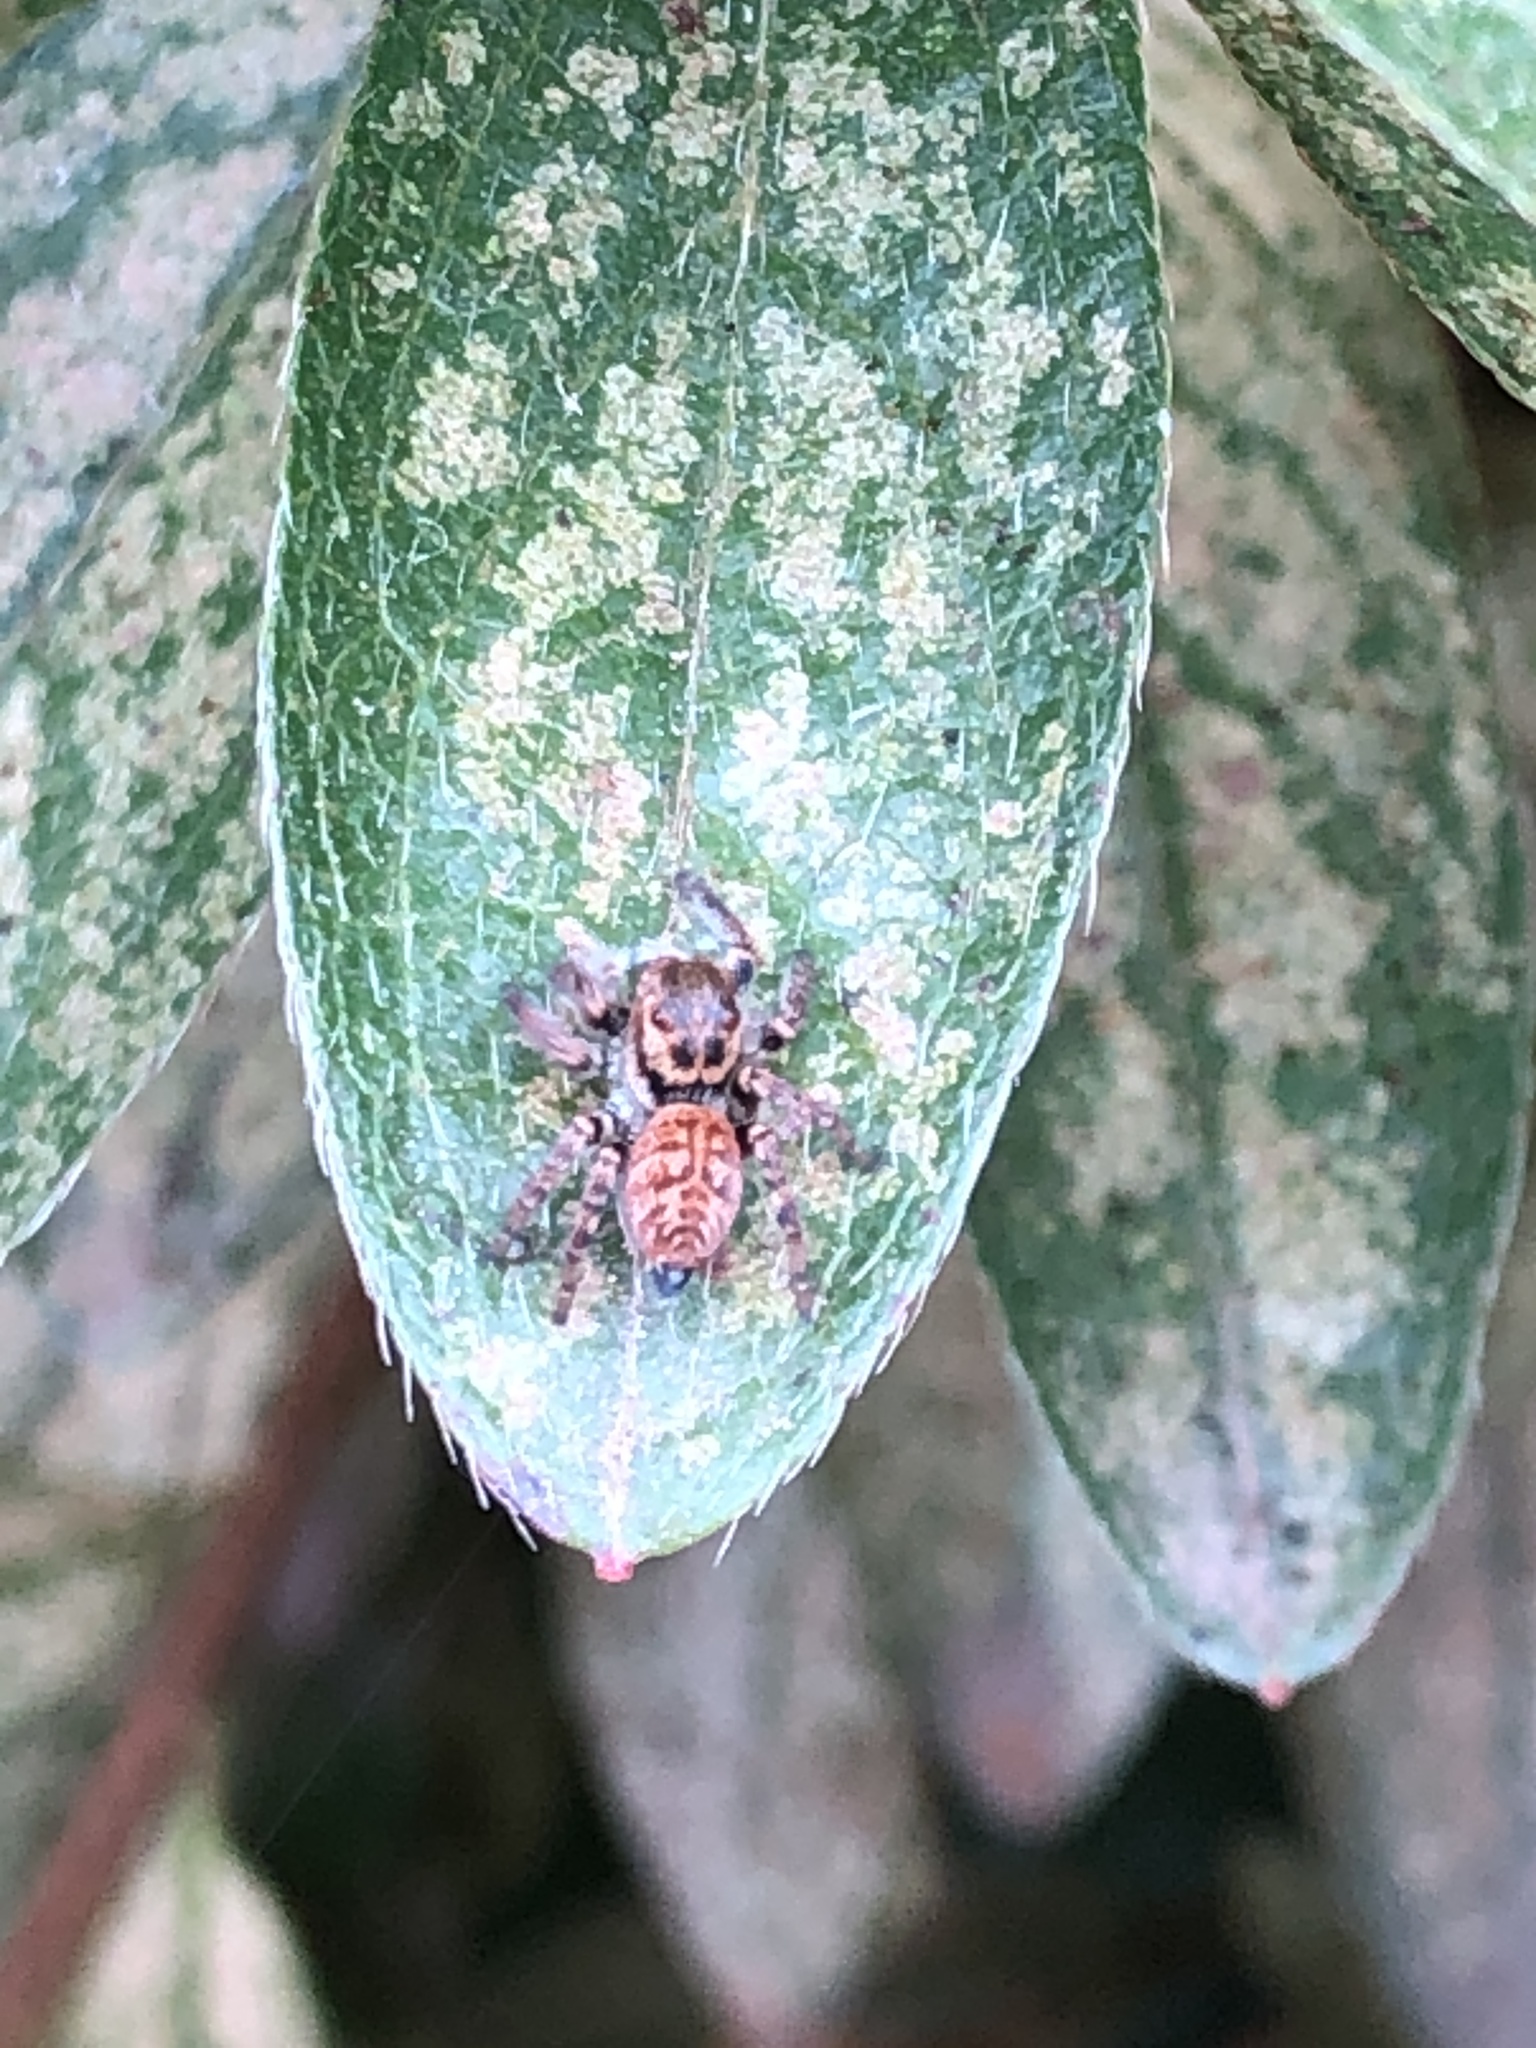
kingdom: Animalia
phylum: Arthropoda
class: Arachnida
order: Araneae
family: Salticidae
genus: Carrhotus
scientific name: Carrhotus xanthogramma
